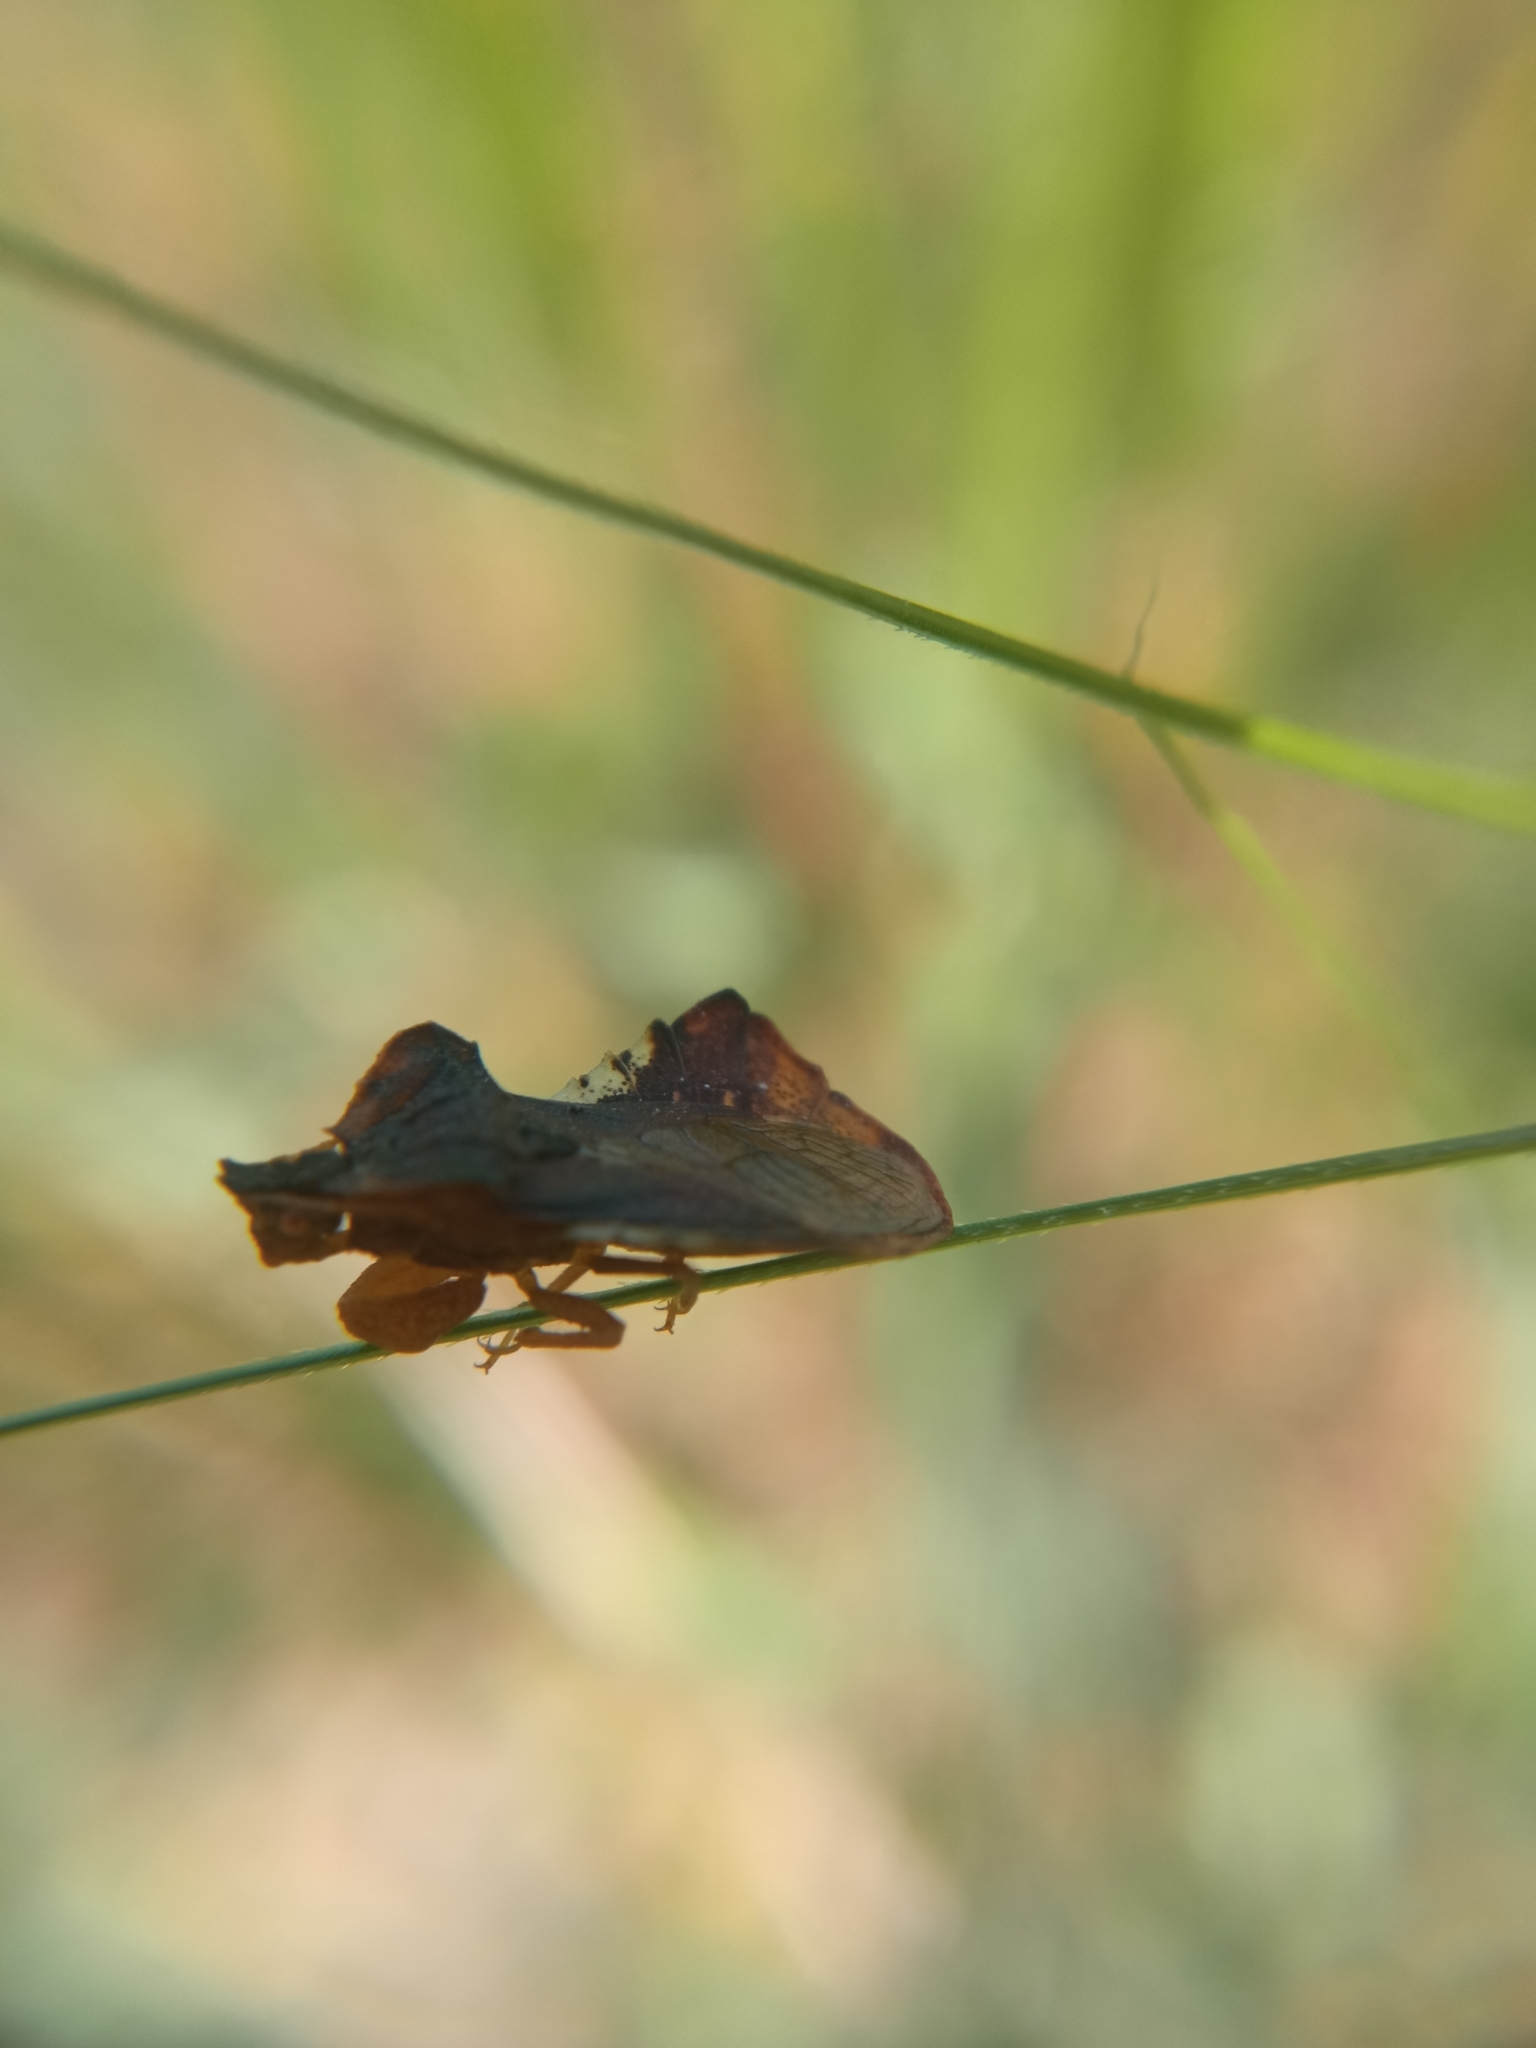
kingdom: Animalia
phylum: Arthropoda
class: Insecta
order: Hemiptera
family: Reduviidae
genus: Phymata
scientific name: Phymata crassipes
